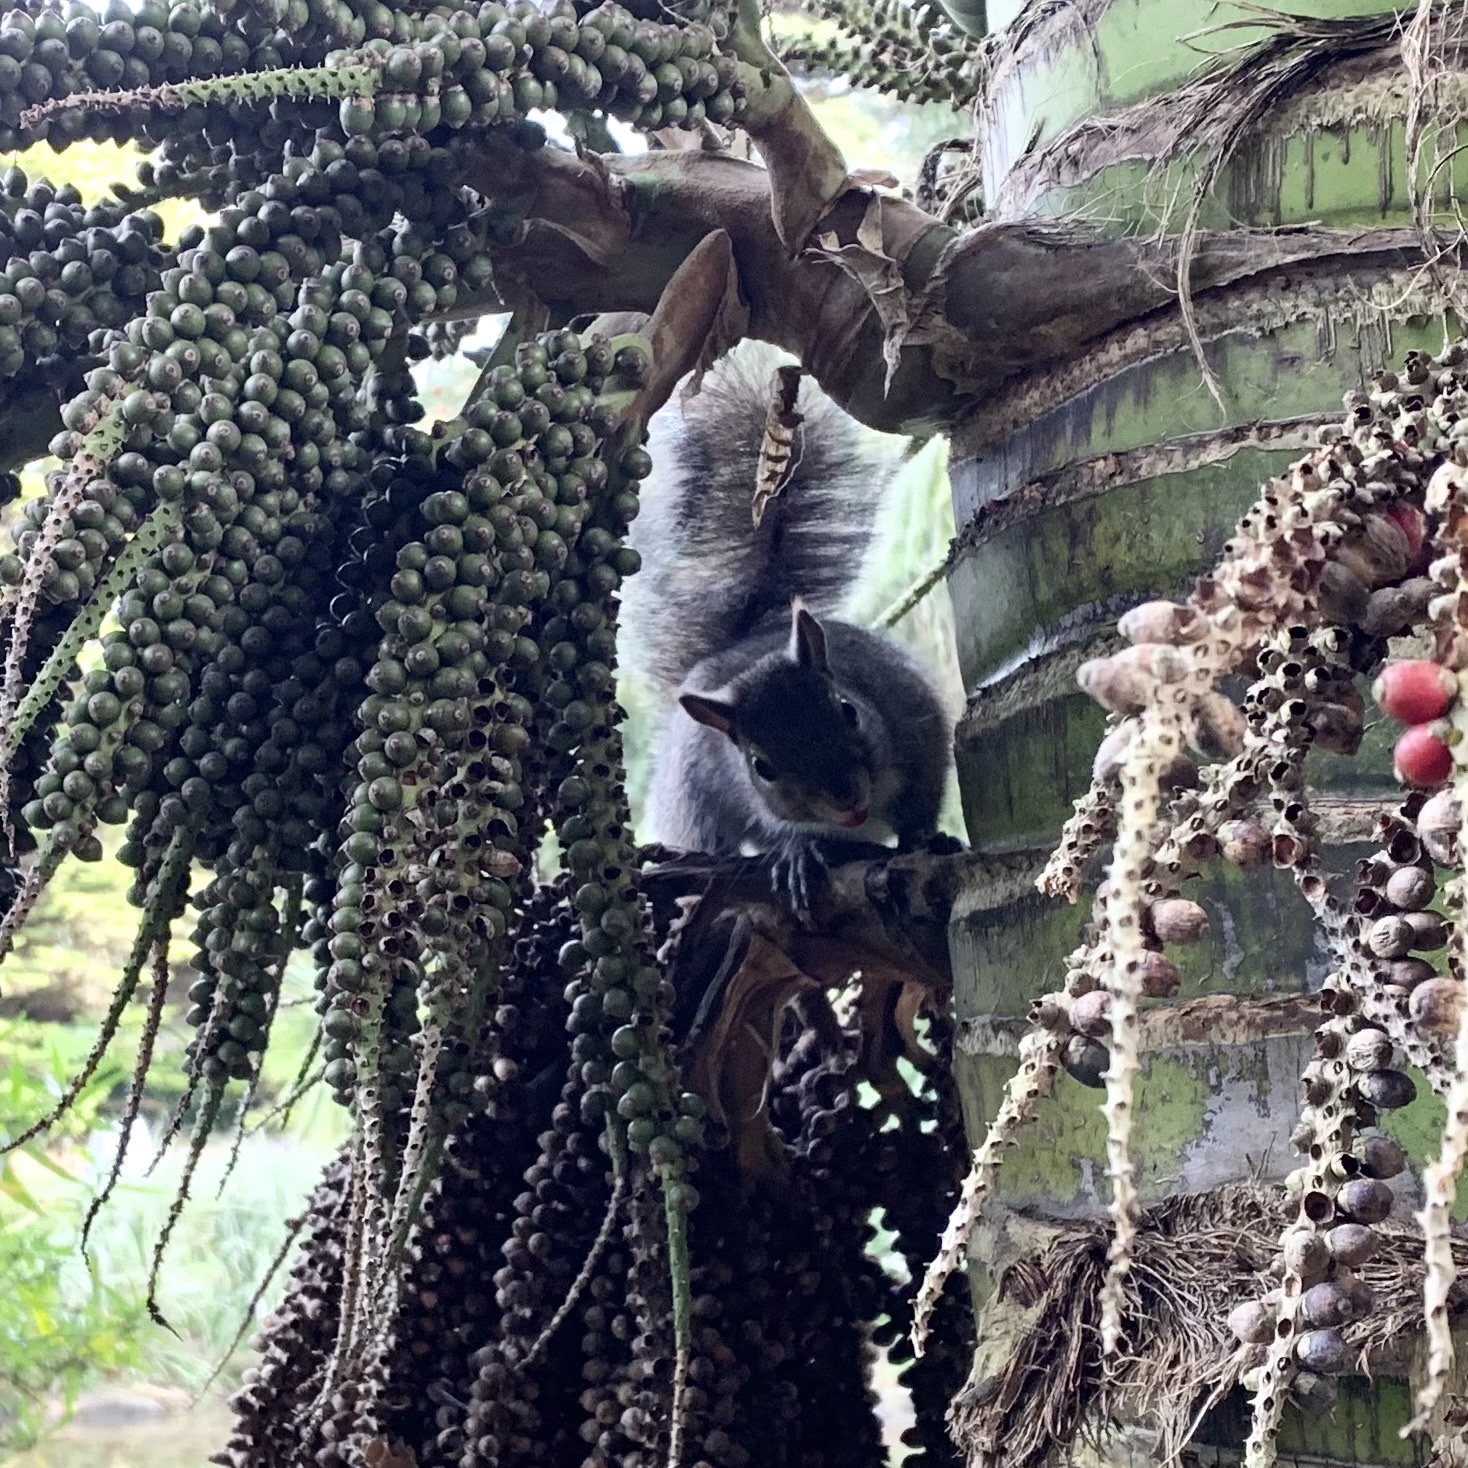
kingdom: Animalia
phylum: Chordata
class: Mammalia
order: Rodentia
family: Sciuridae
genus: Sciurus
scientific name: Sciurus carolinensis
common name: Eastern gray squirrel
